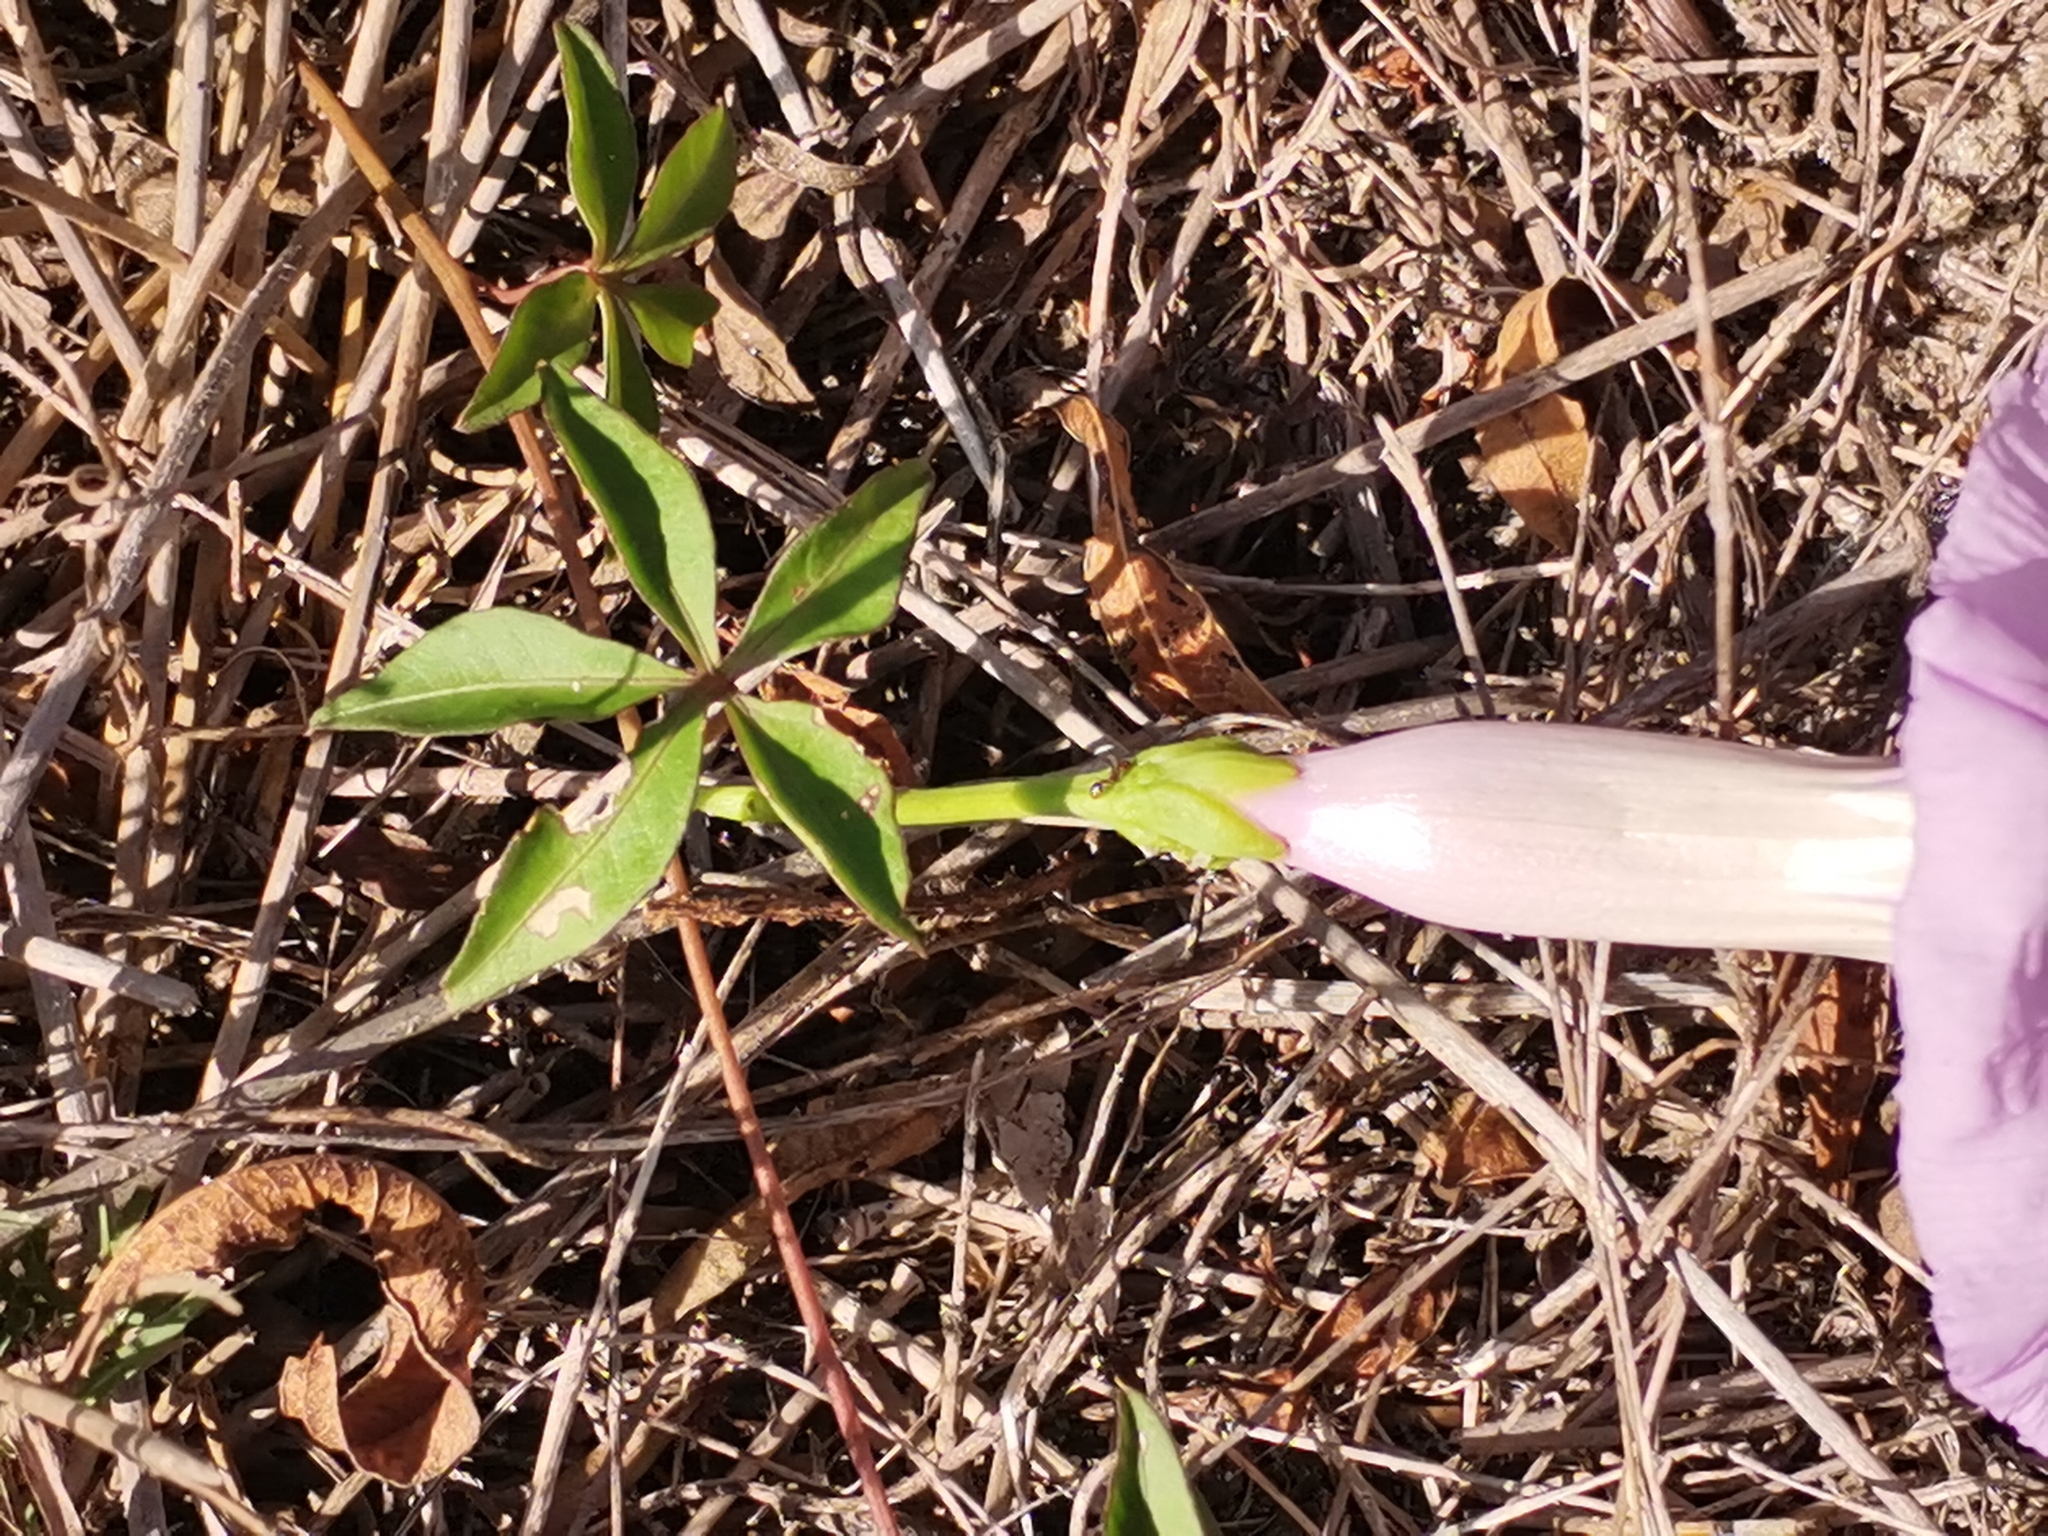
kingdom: Plantae
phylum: Tracheophyta
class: Magnoliopsida
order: Solanales
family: Convolvulaceae
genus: Ipomoea
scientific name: Ipomoea cairica
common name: Mile a minute vine
